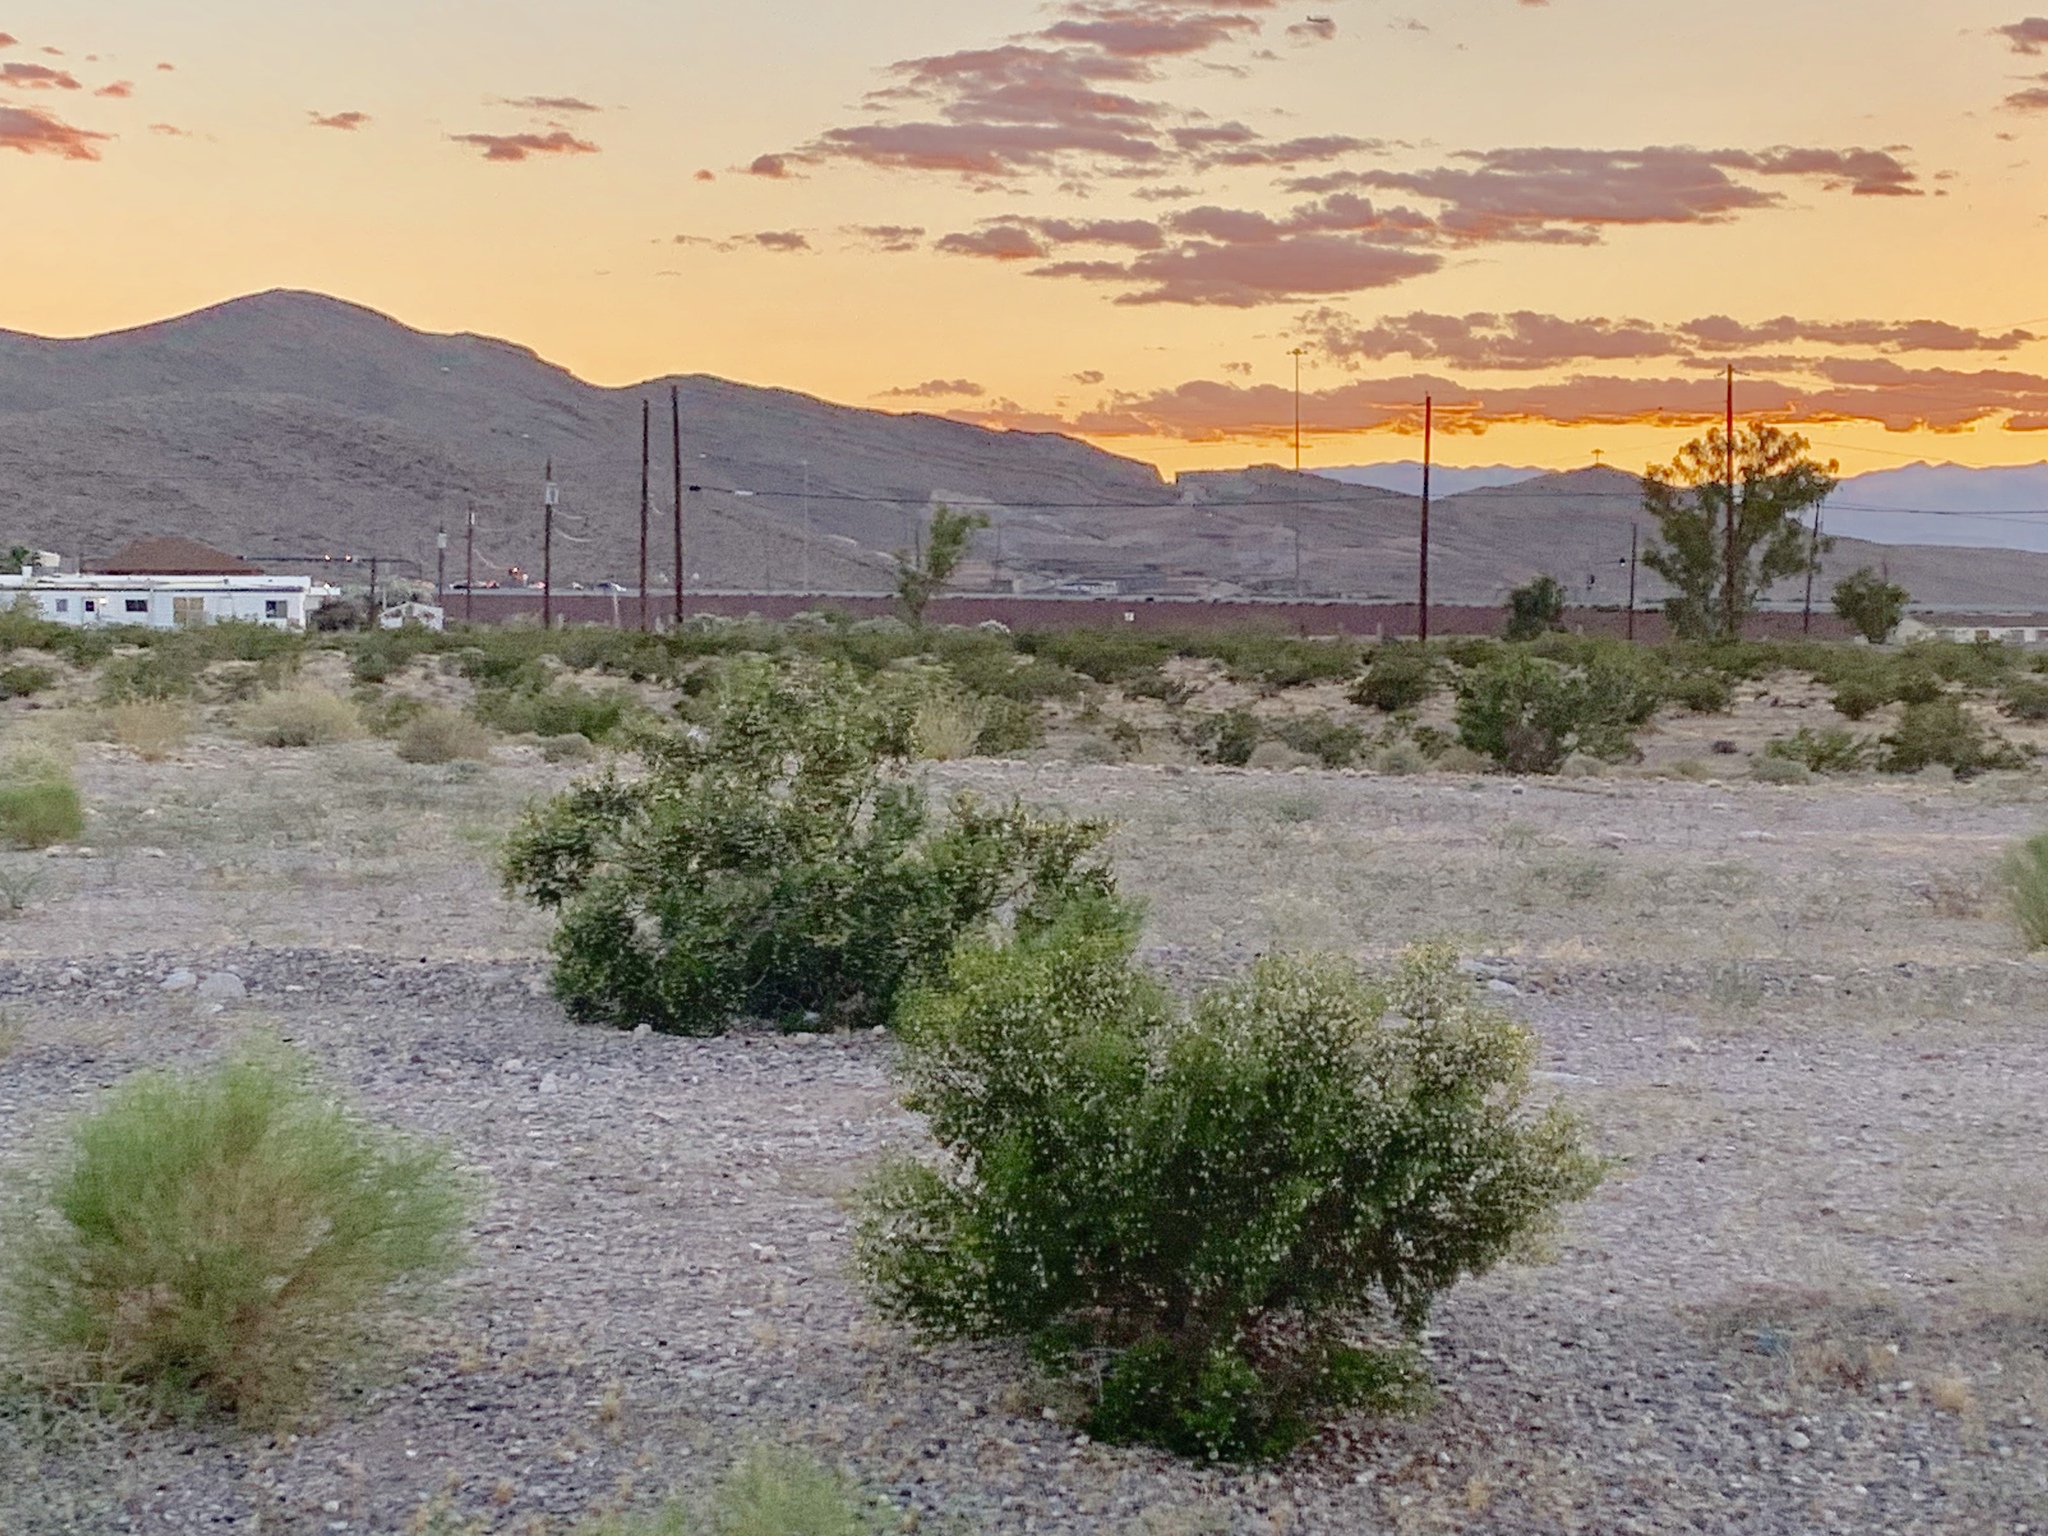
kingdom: Plantae
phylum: Tracheophyta
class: Magnoliopsida
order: Zygophyllales
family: Zygophyllaceae
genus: Larrea
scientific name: Larrea tridentata
